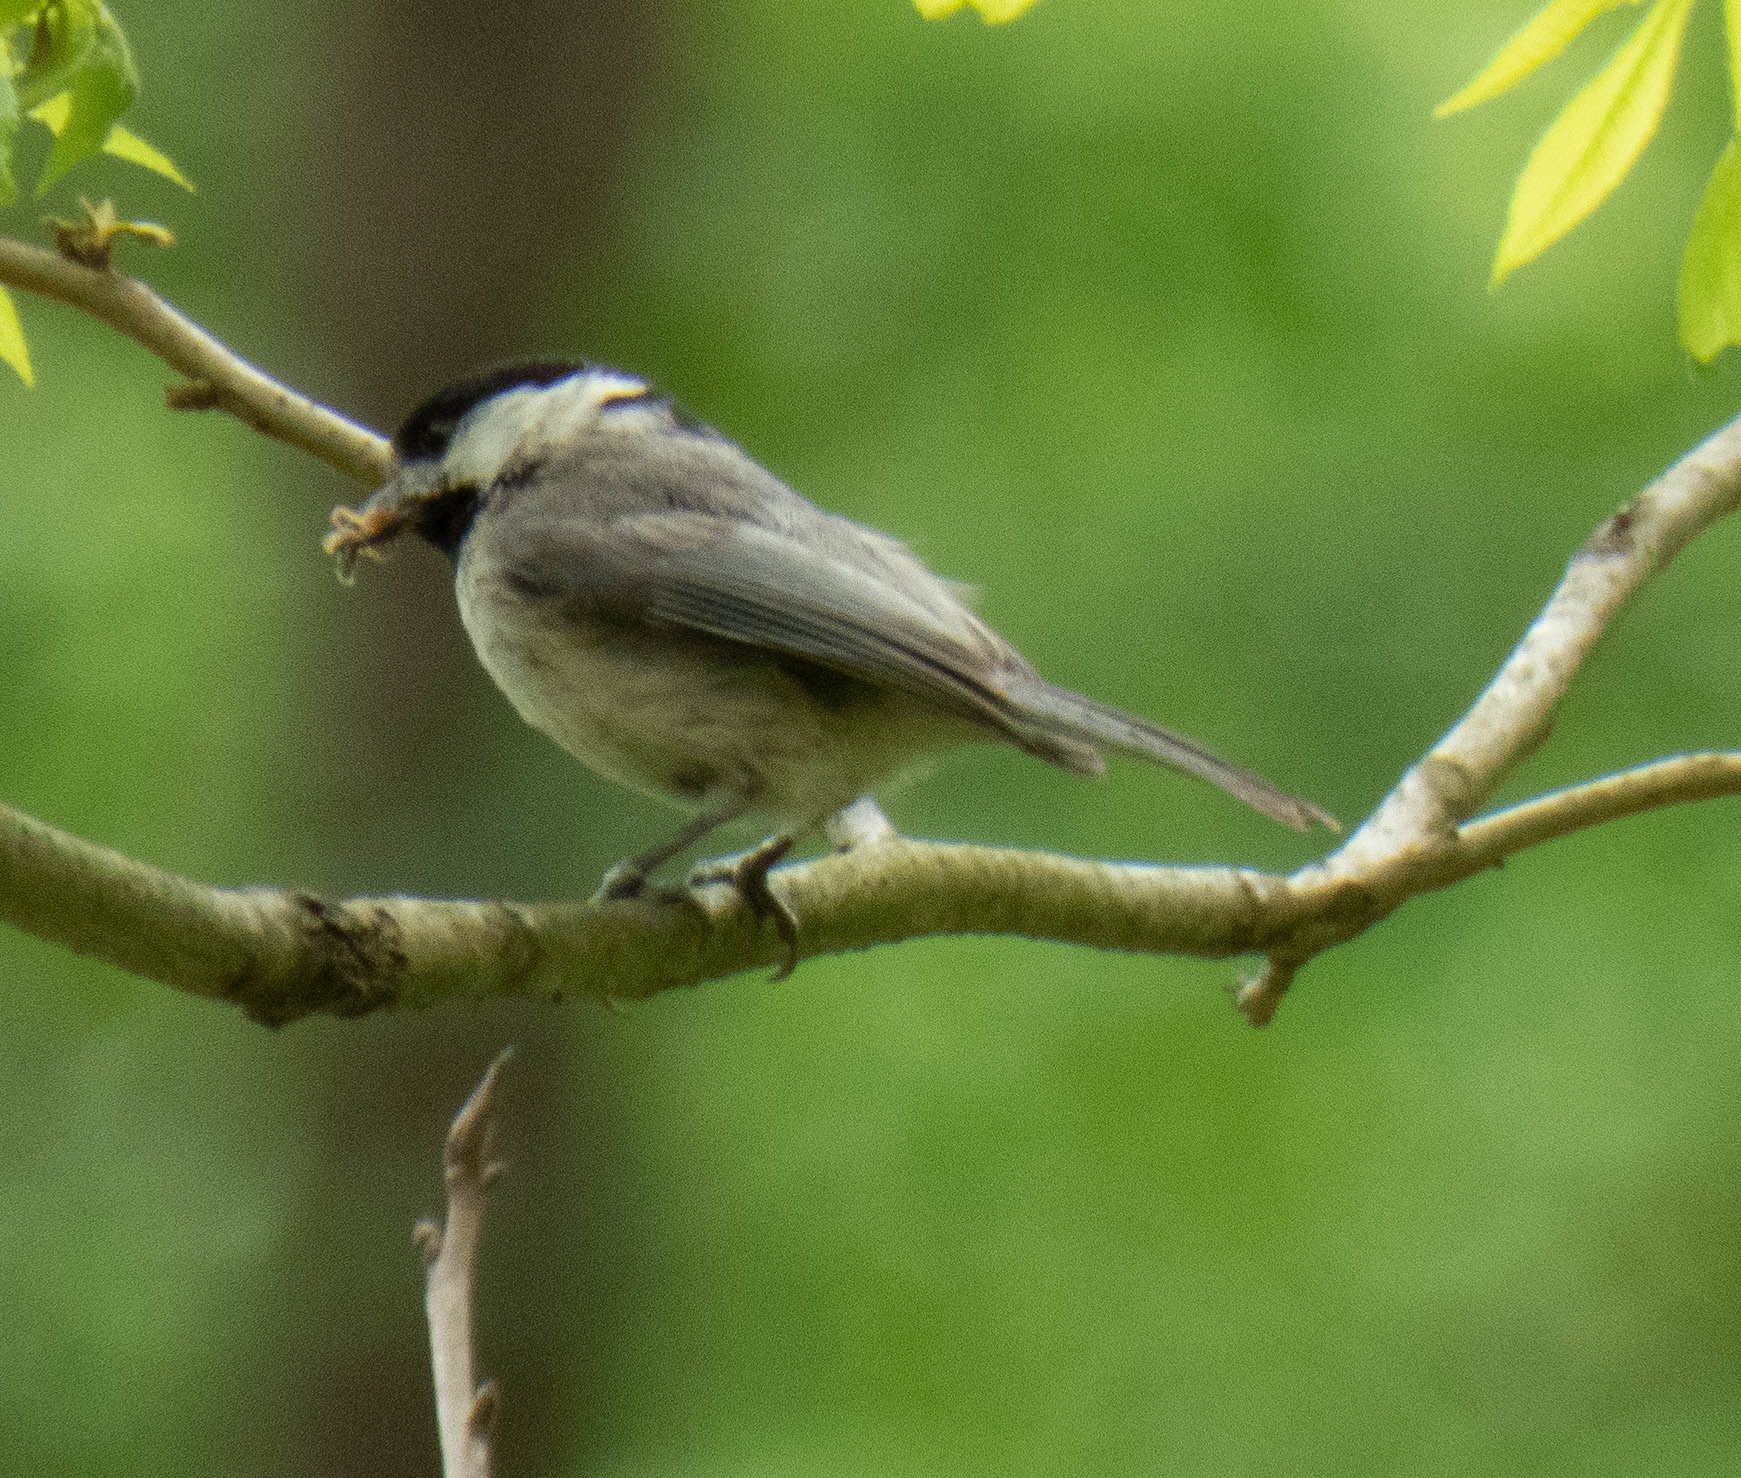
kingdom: Animalia
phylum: Chordata
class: Aves
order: Passeriformes
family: Paridae
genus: Poecile
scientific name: Poecile carolinensis
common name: Carolina chickadee
